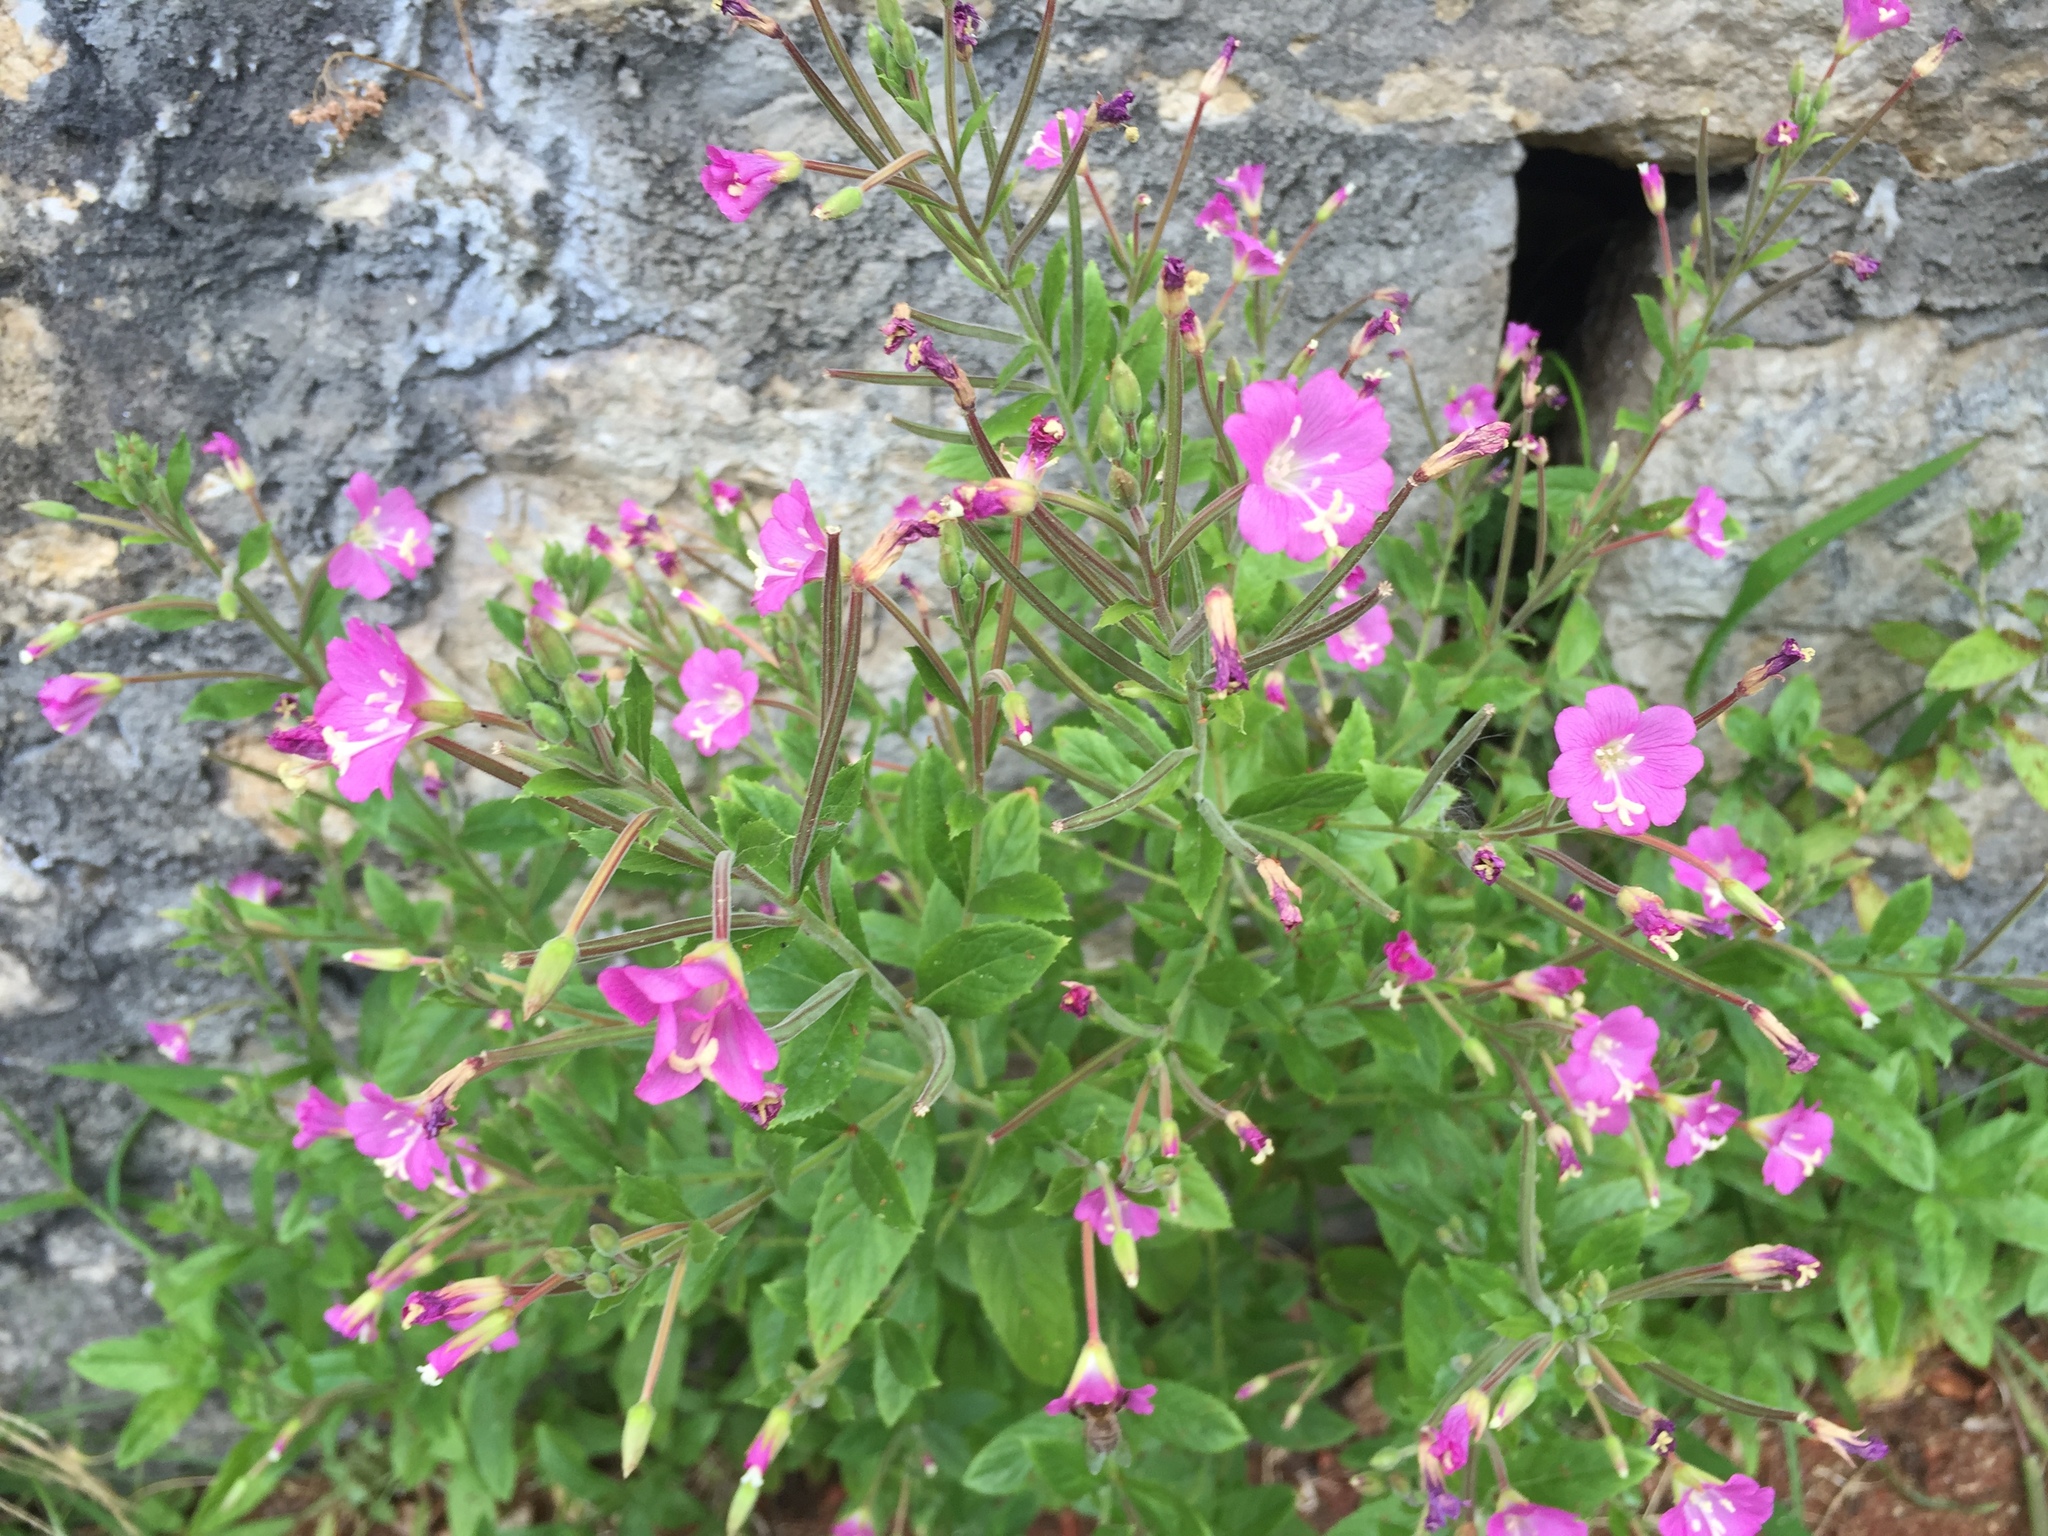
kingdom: Plantae
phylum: Tracheophyta
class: Magnoliopsida
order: Myrtales
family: Onagraceae
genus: Epilobium
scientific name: Epilobium hirsutum
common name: Great willowherb
